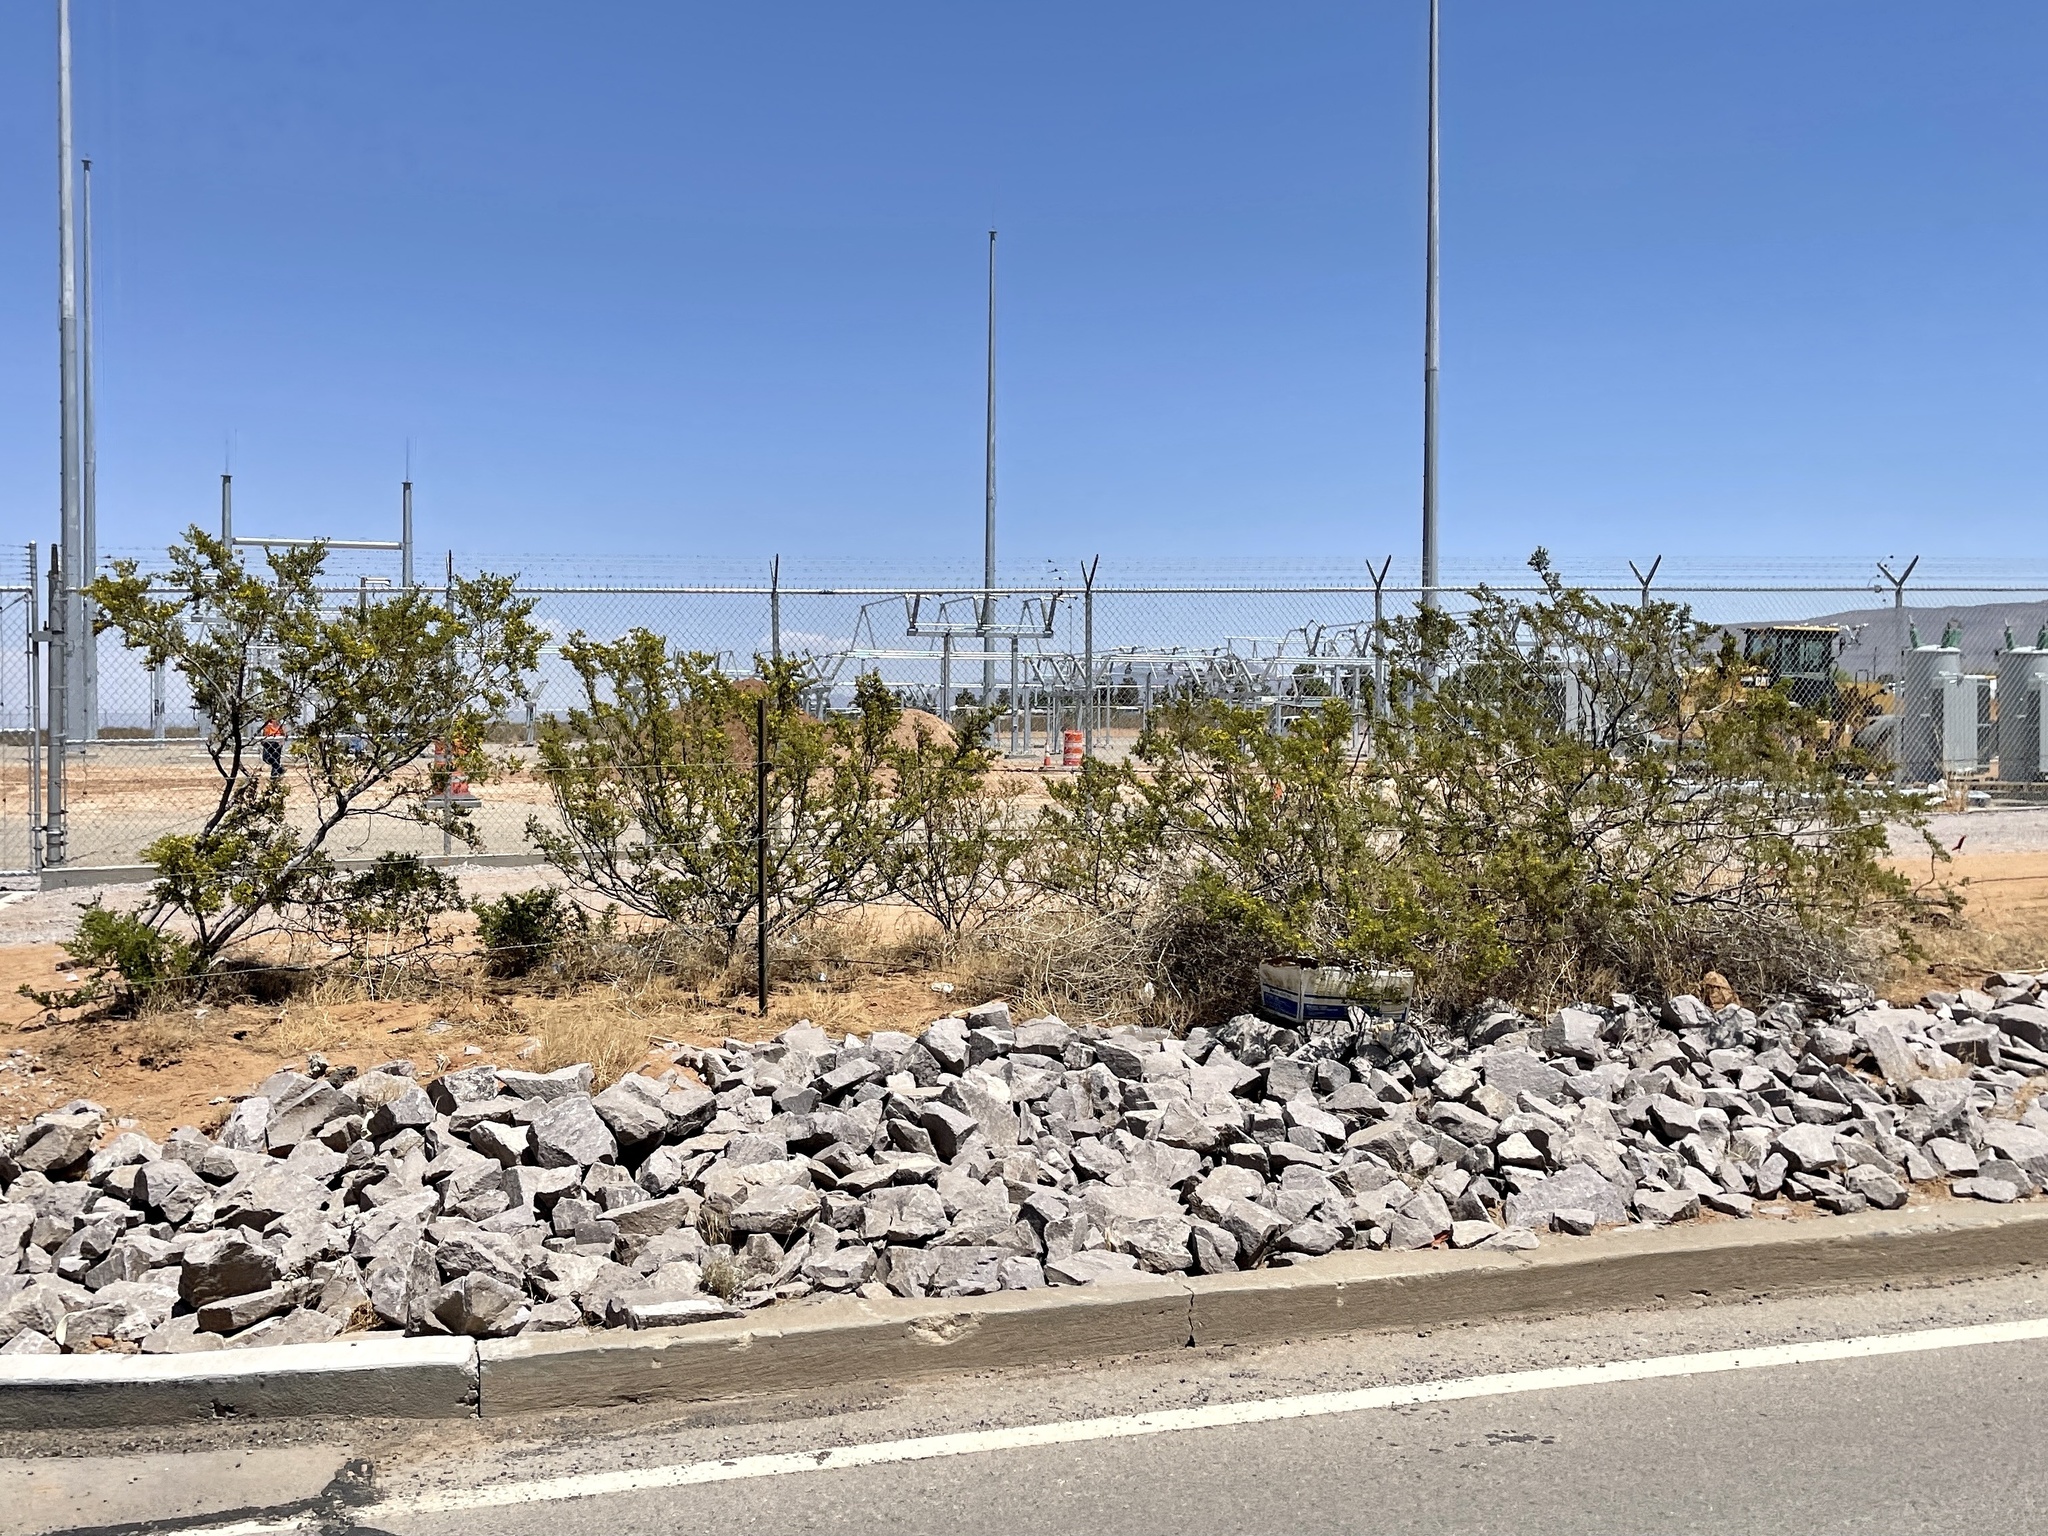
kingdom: Plantae
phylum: Tracheophyta
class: Magnoliopsida
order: Zygophyllales
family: Zygophyllaceae
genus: Larrea
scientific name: Larrea tridentata
